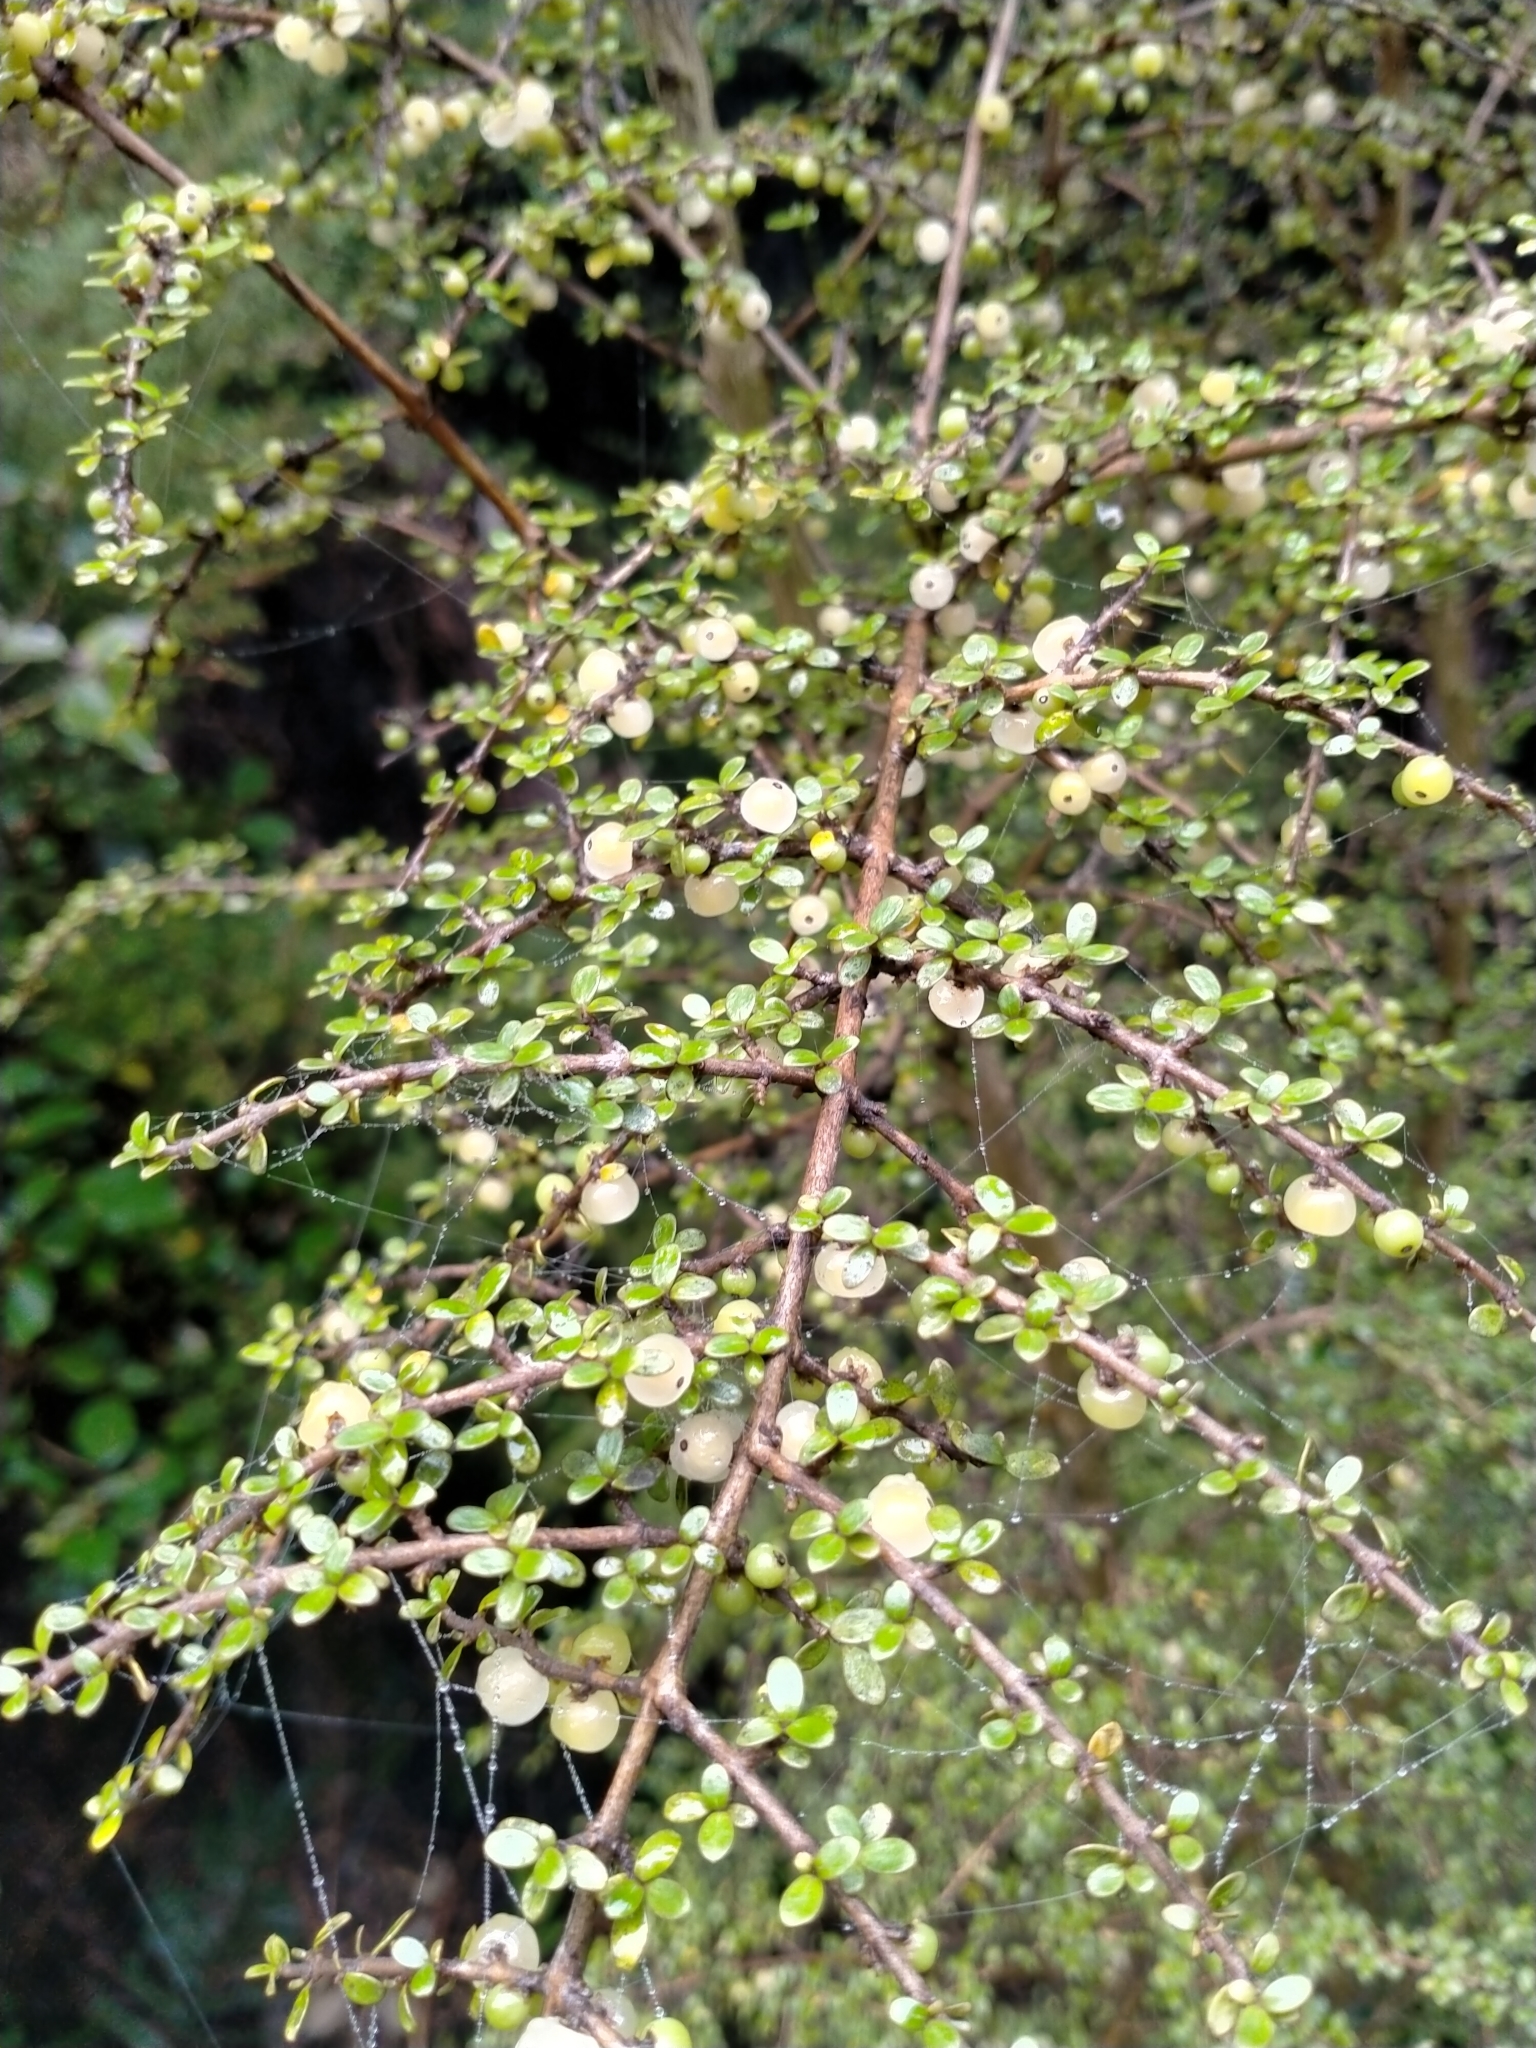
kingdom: Plantae
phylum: Tracheophyta
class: Magnoliopsida
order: Gentianales
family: Rubiaceae
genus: Coprosma
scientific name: Coprosma dumosa
